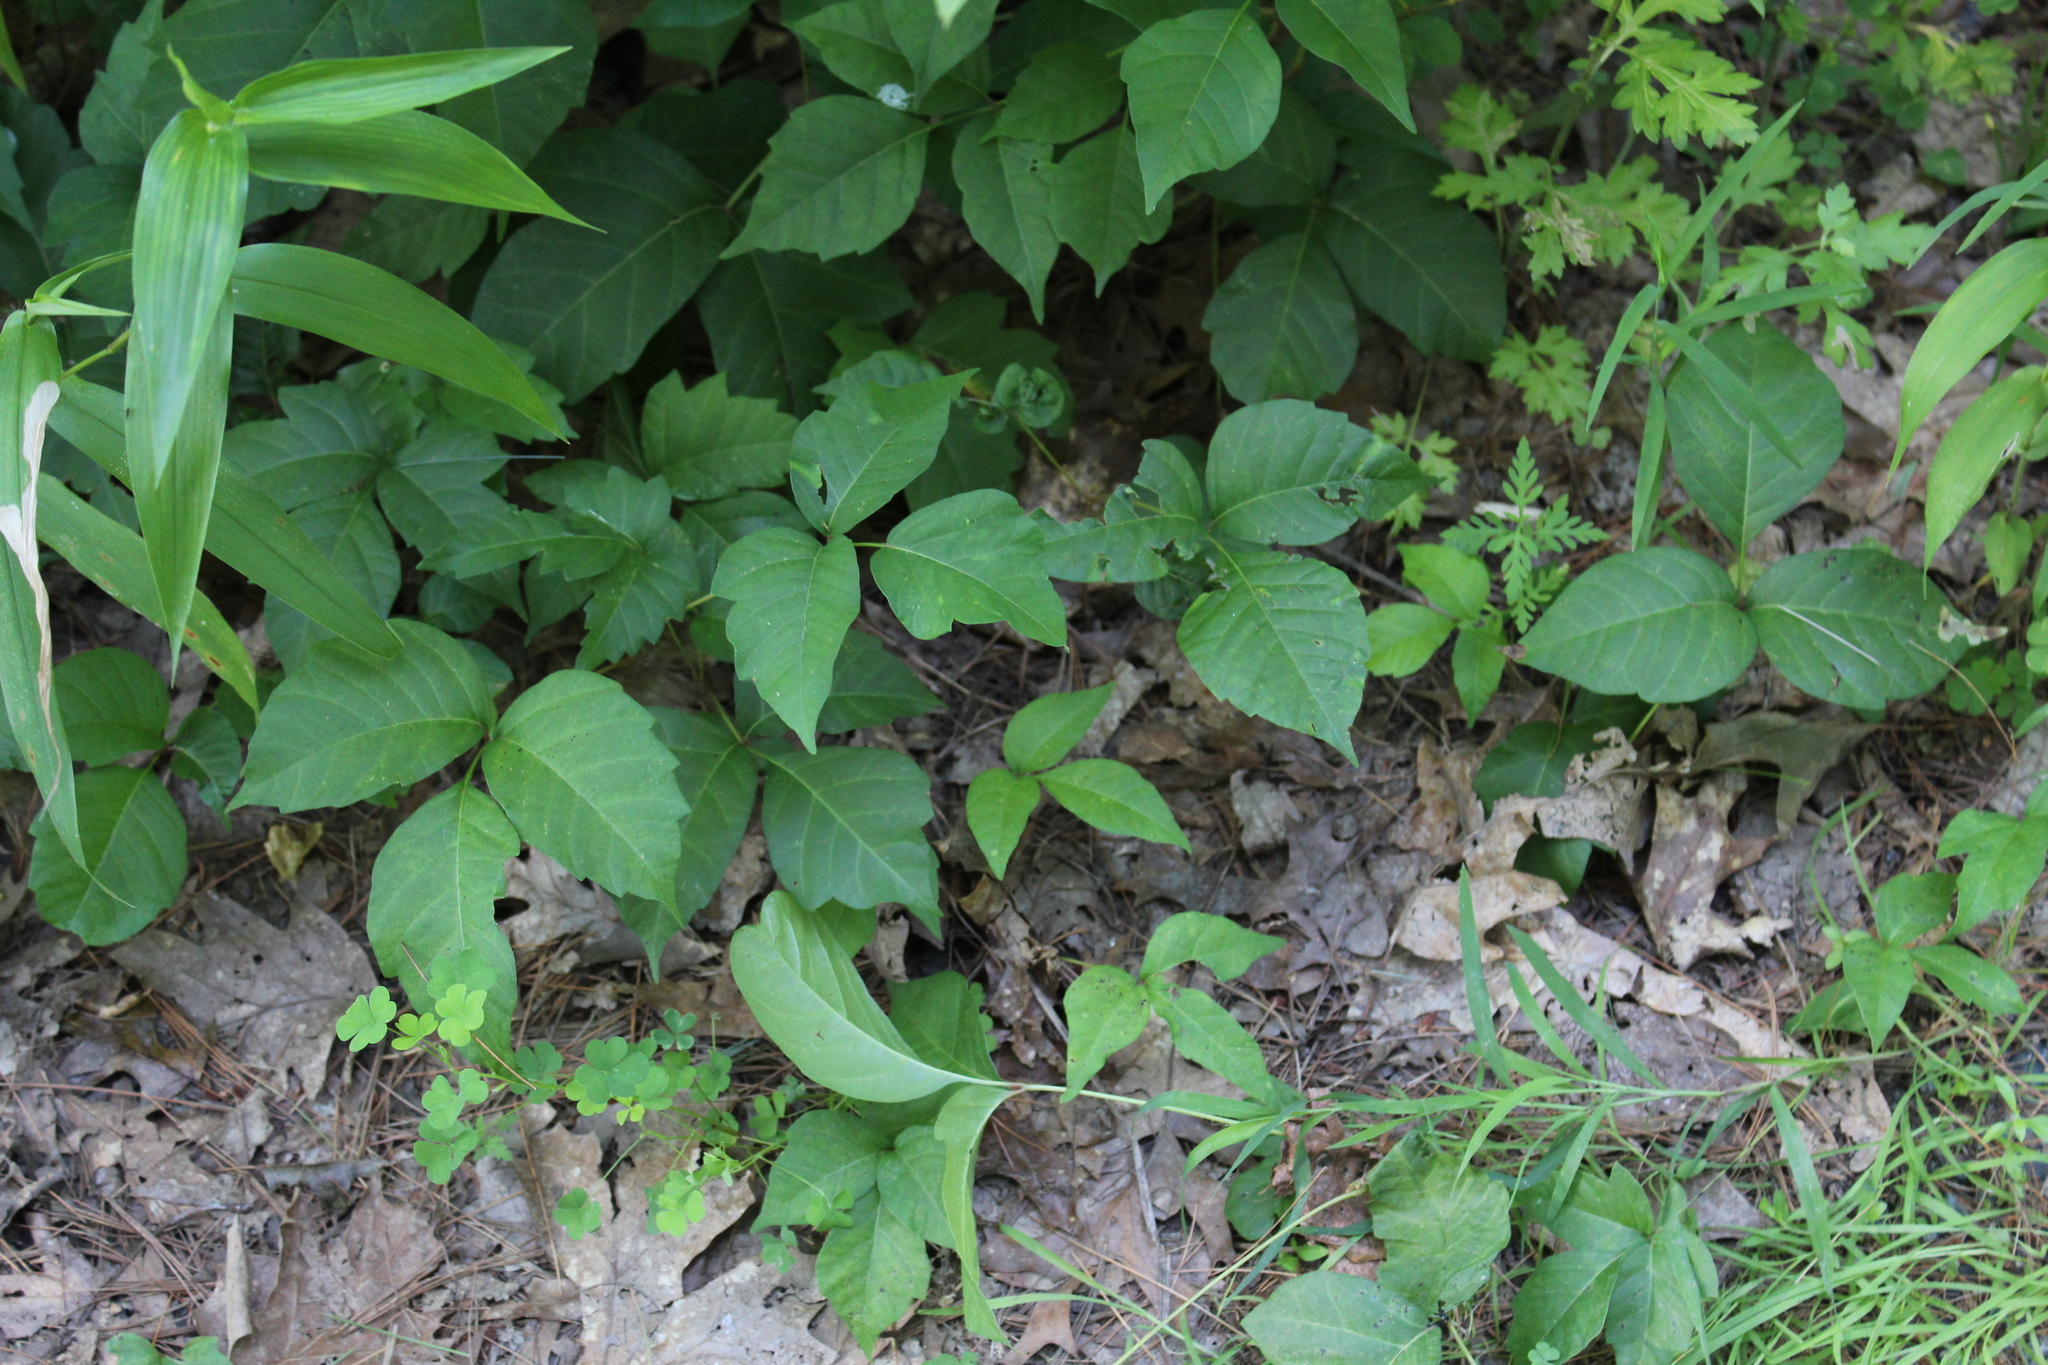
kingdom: Plantae
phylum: Tracheophyta
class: Magnoliopsida
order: Sapindales
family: Anacardiaceae
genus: Toxicodendron
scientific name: Toxicodendron radicans
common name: Poison ivy
